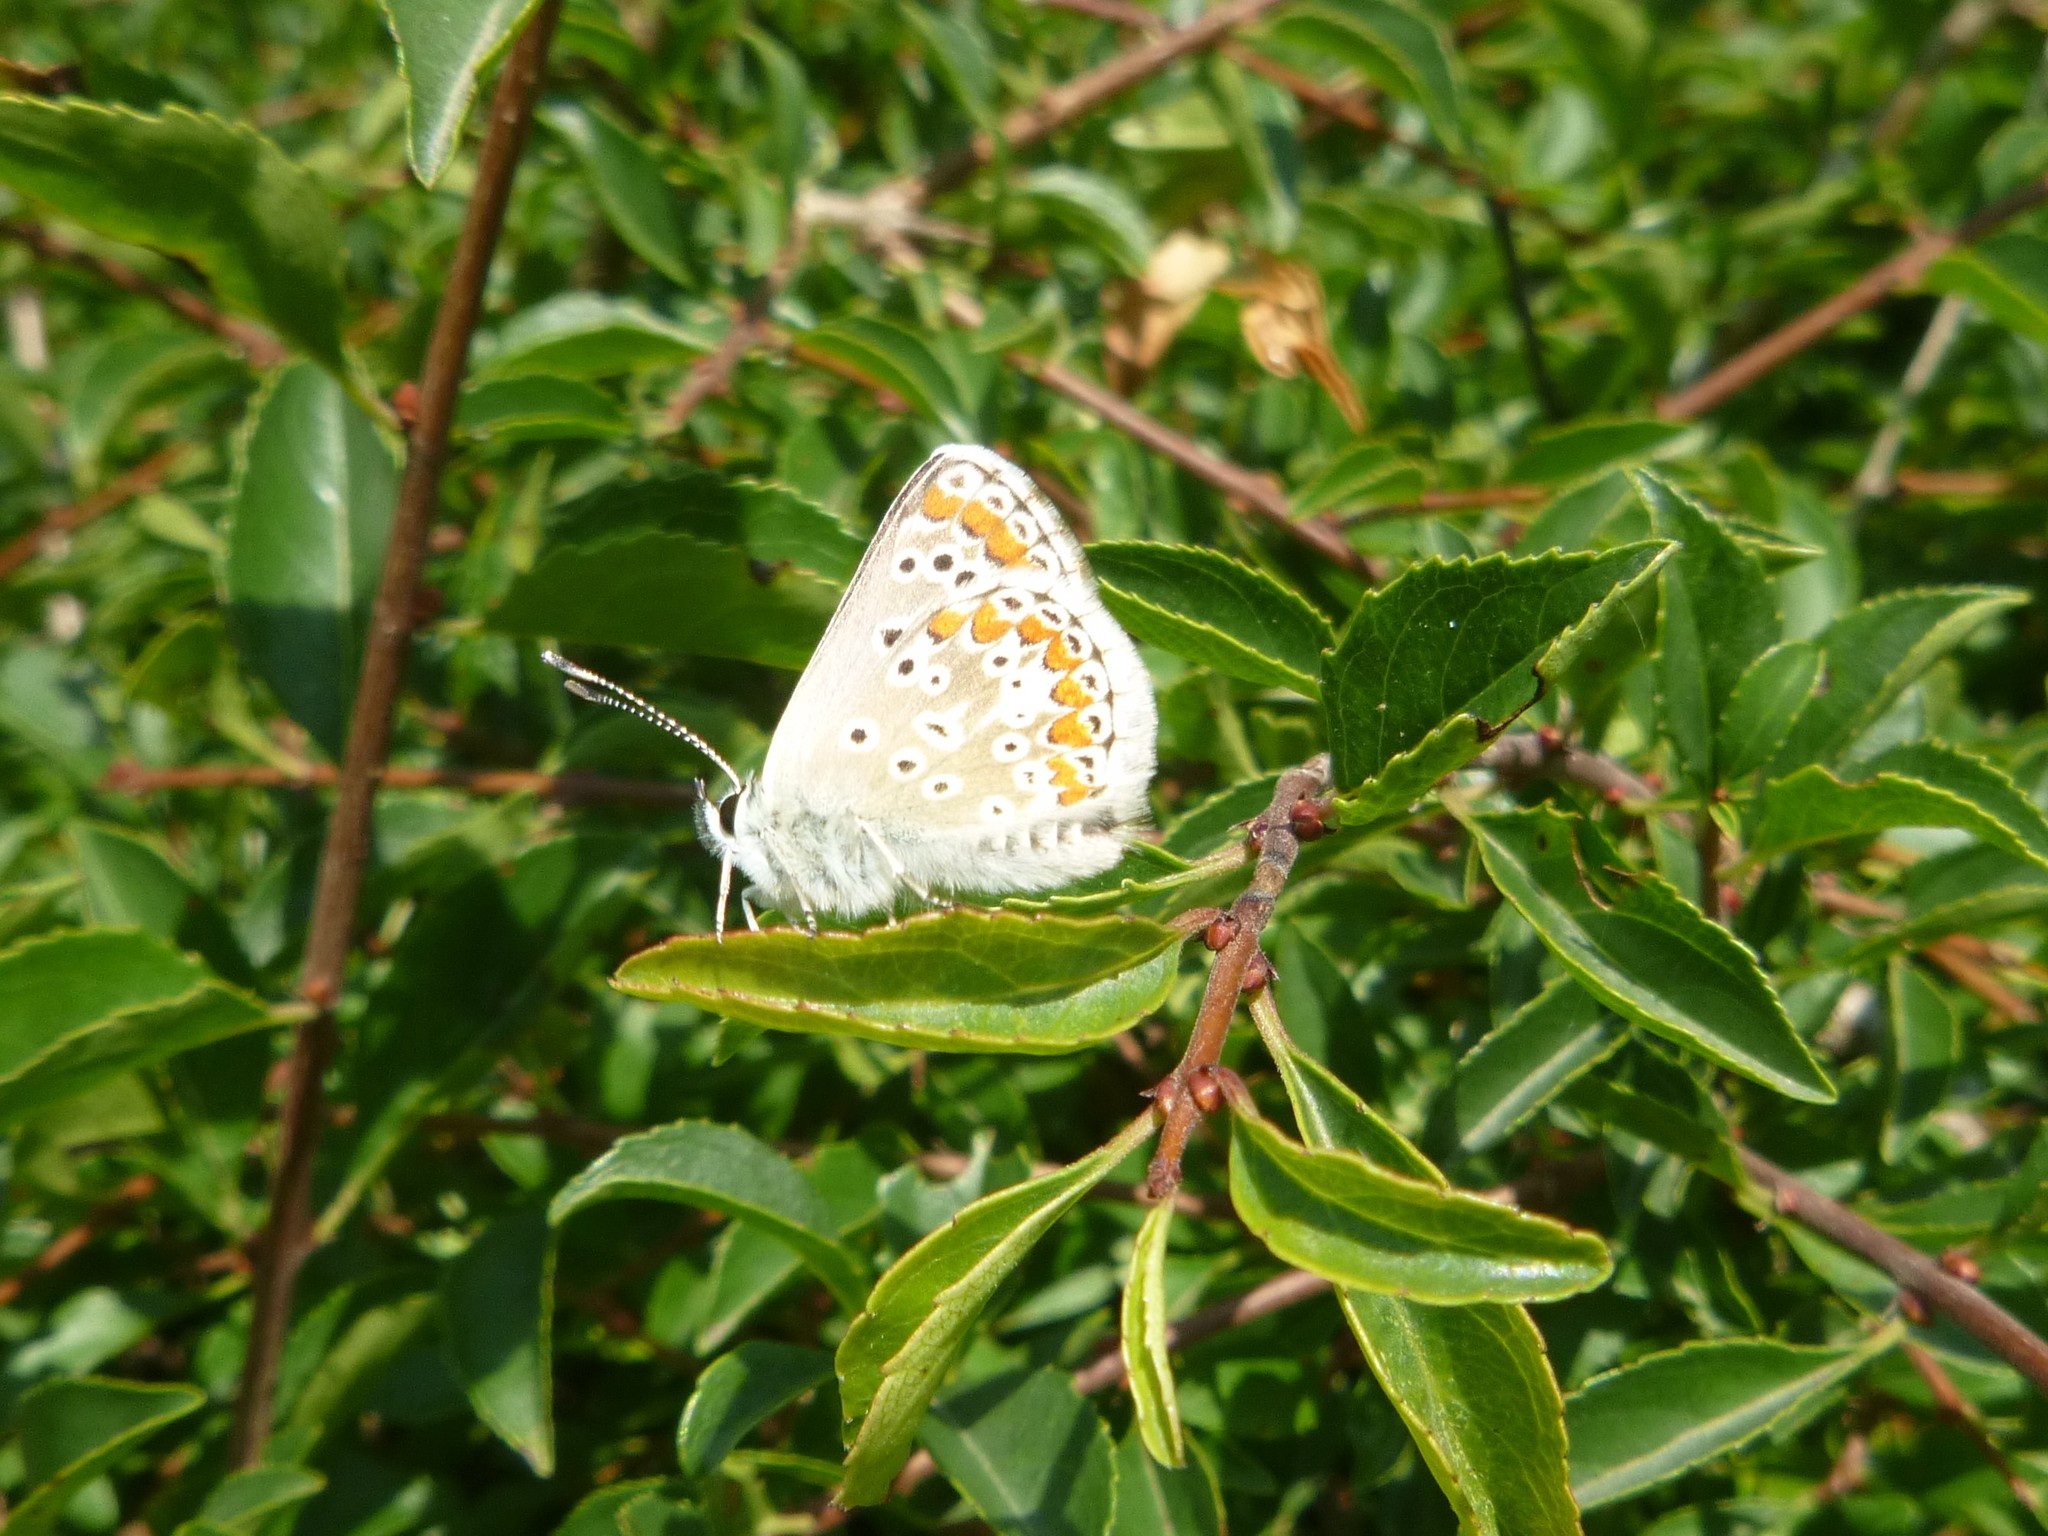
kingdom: Animalia
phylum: Arthropoda
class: Insecta
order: Lepidoptera
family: Lycaenidae
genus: Aricia
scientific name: Aricia agestis
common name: Brown argus
